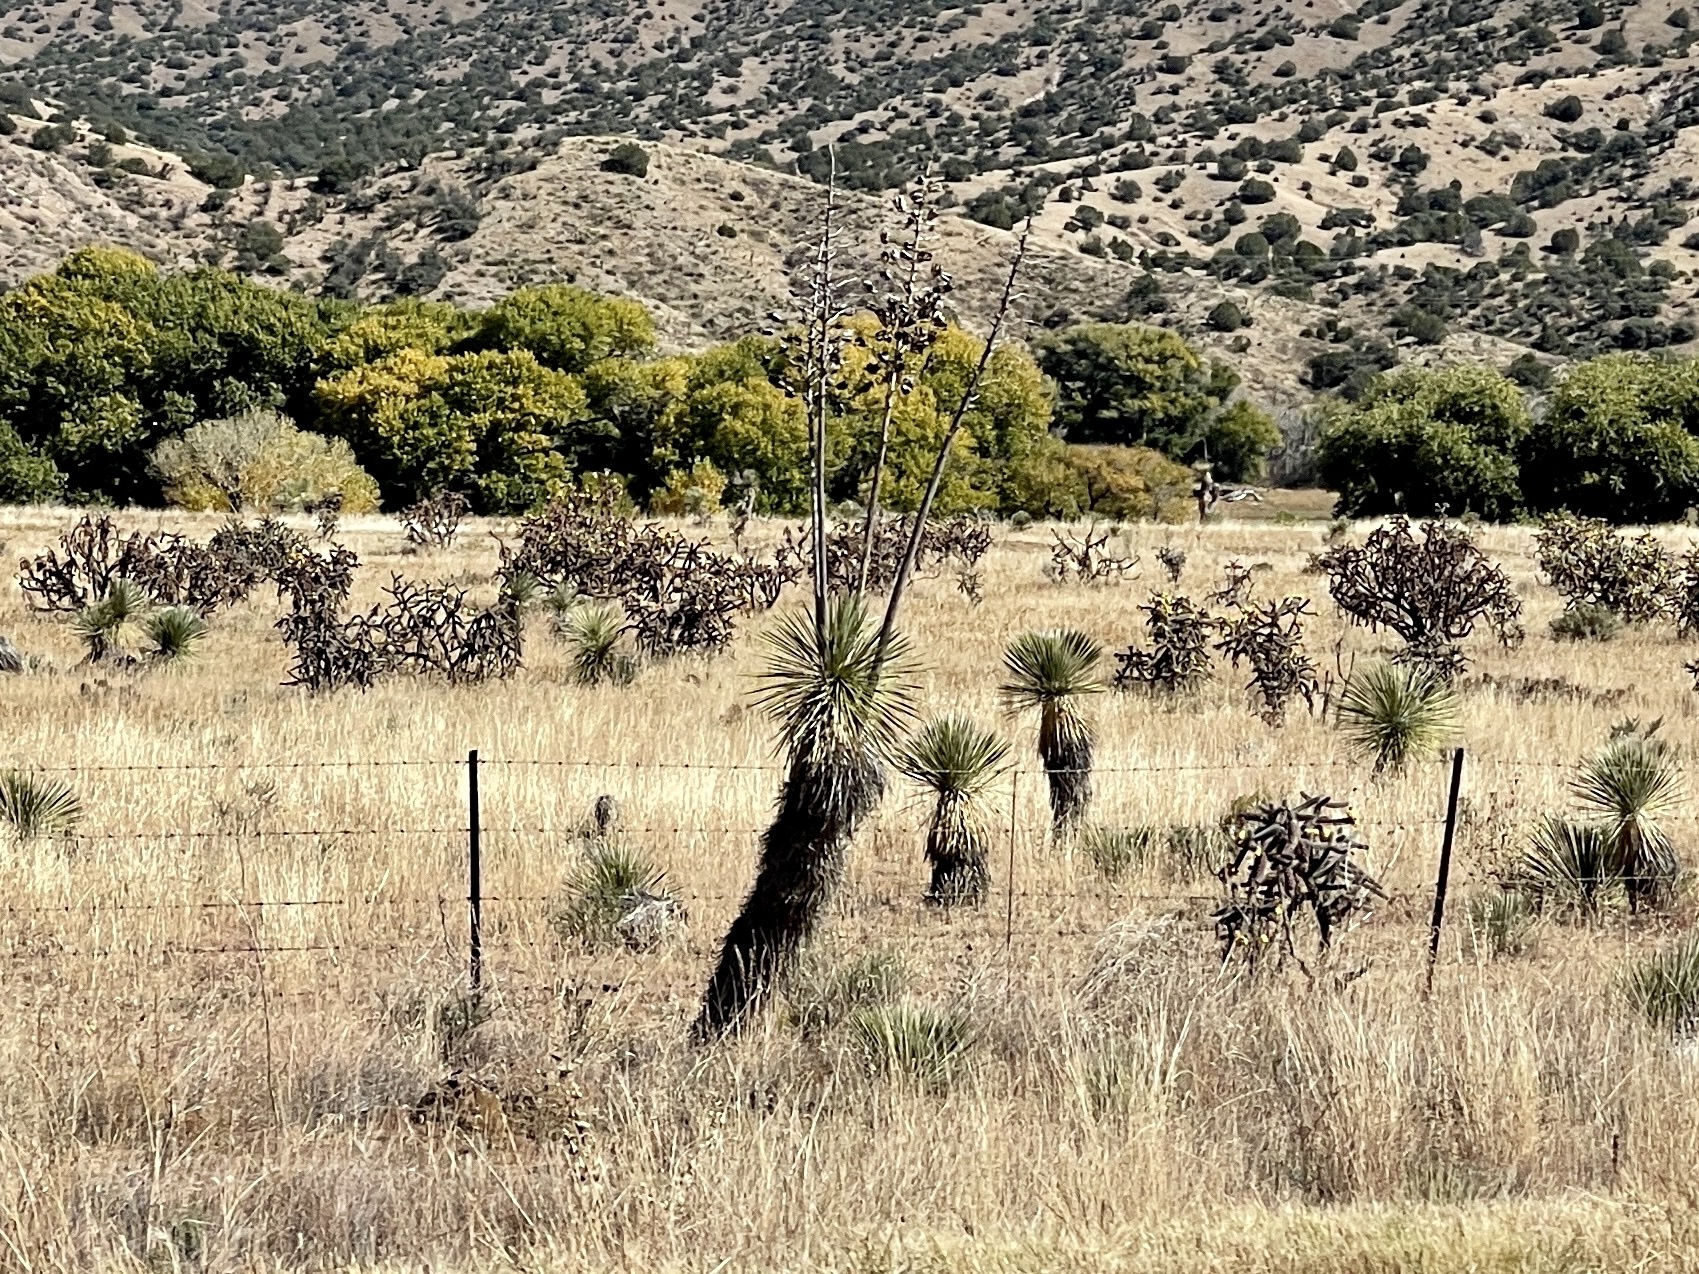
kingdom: Plantae
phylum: Tracheophyta
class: Liliopsida
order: Asparagales
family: Asparagaceae
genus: Yucca
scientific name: Yucca elata
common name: Palmella
